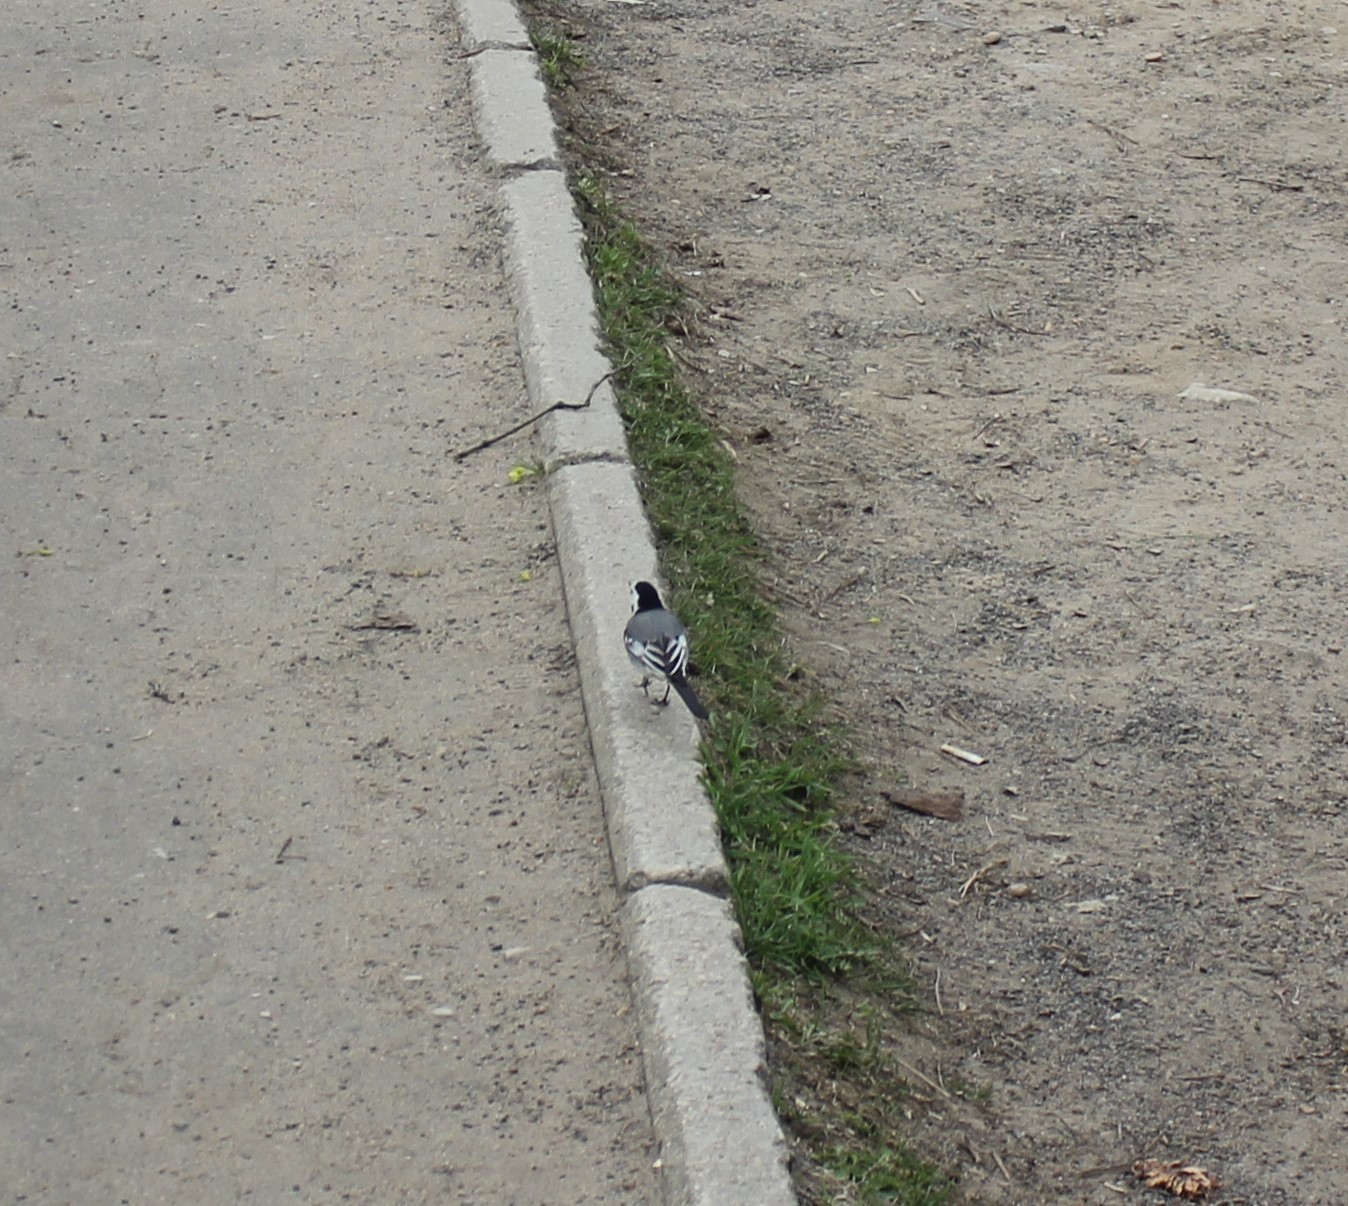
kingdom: Animalia
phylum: Chordata
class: Aves
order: Passeriformes
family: Motacillidae
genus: Motacilla
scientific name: Motacilla alba
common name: White wagtail
